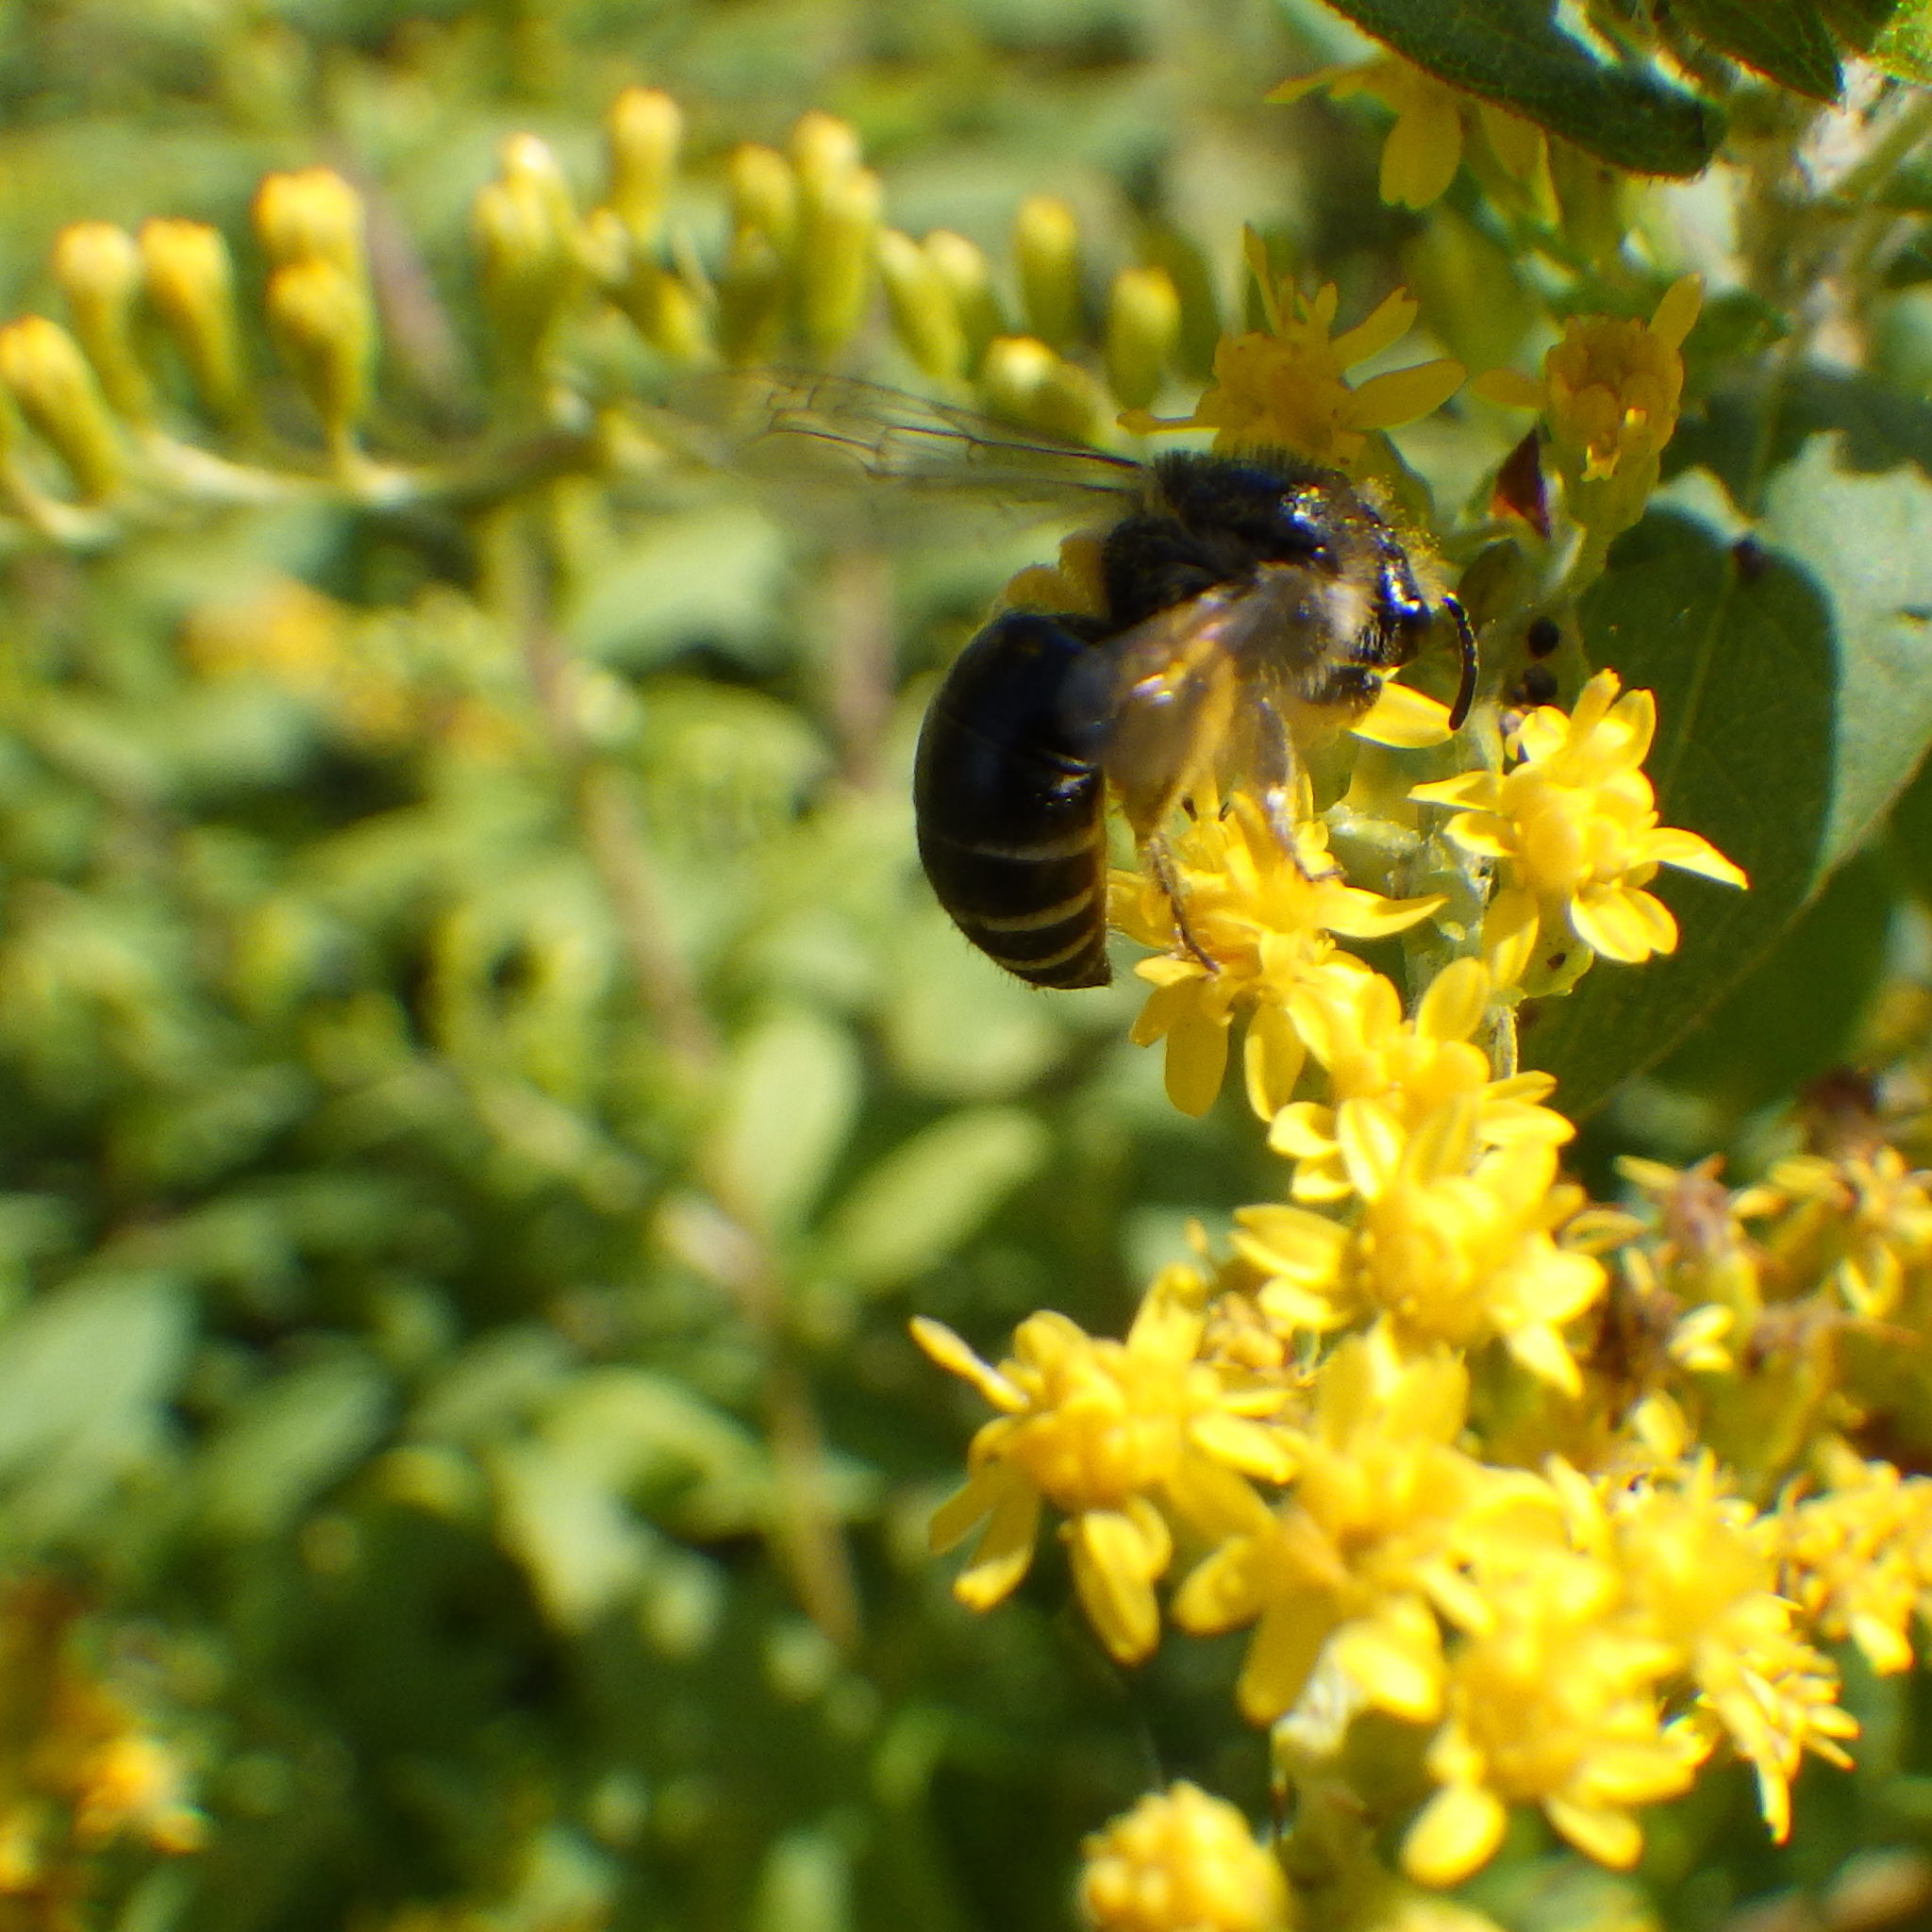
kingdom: Animalia
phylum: Arthropoda
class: Insecta
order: Hymenoptera
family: Colletidae
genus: Colletes
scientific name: Colletes simulans
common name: Spine-shouldered cellophane bee
